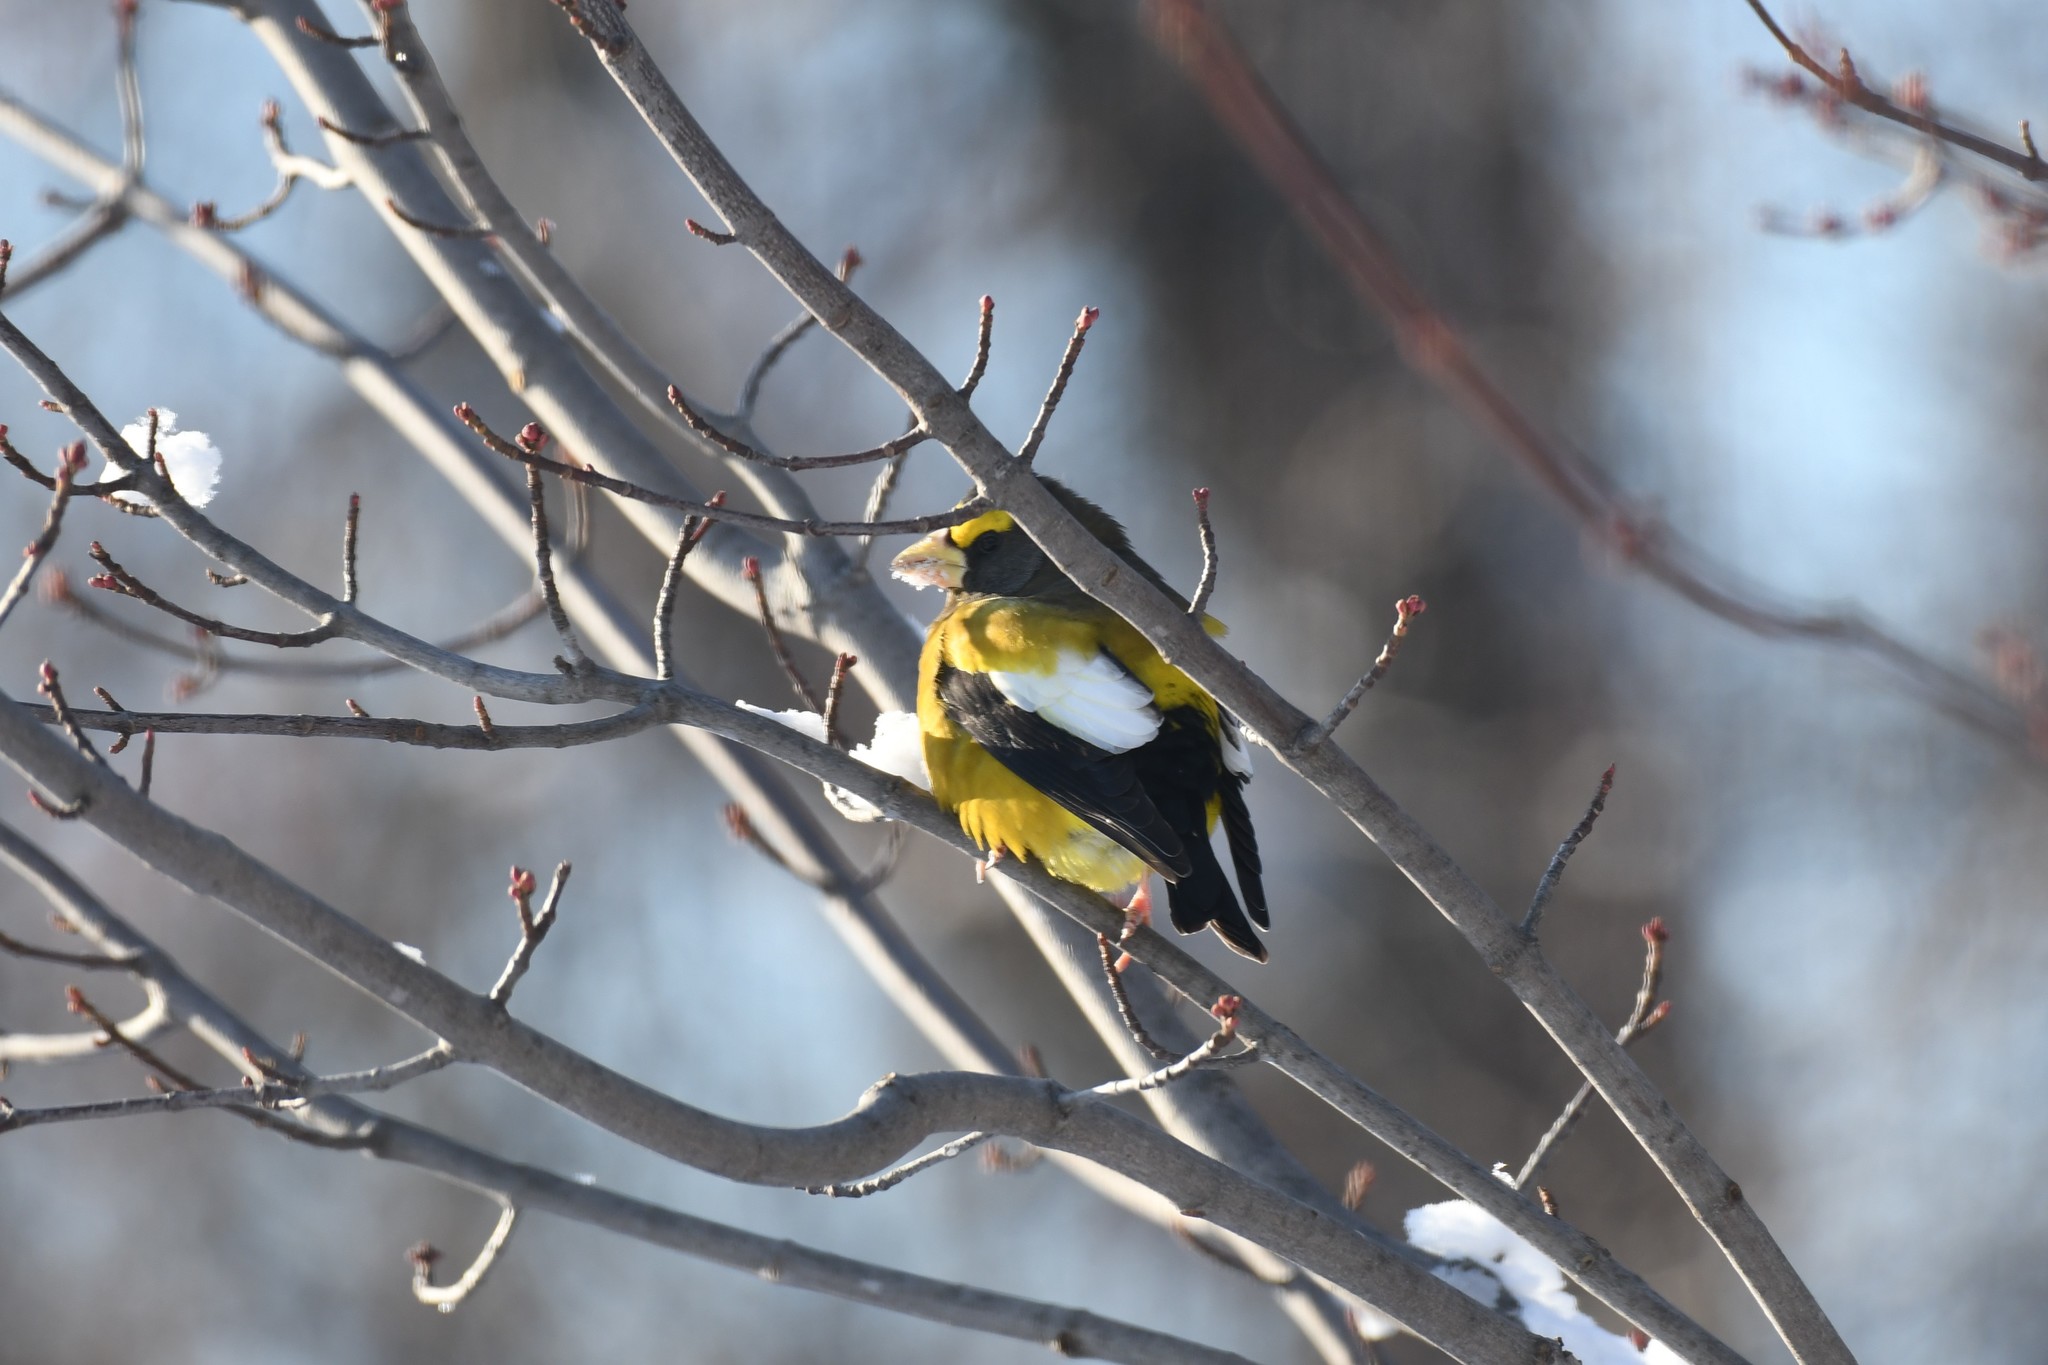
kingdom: Animalia
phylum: Chordata
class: Aves
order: Passeriformes
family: Fringillidae
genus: Hesperiphona
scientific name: Hesperiphona vespertina
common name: Evening grosbeak
